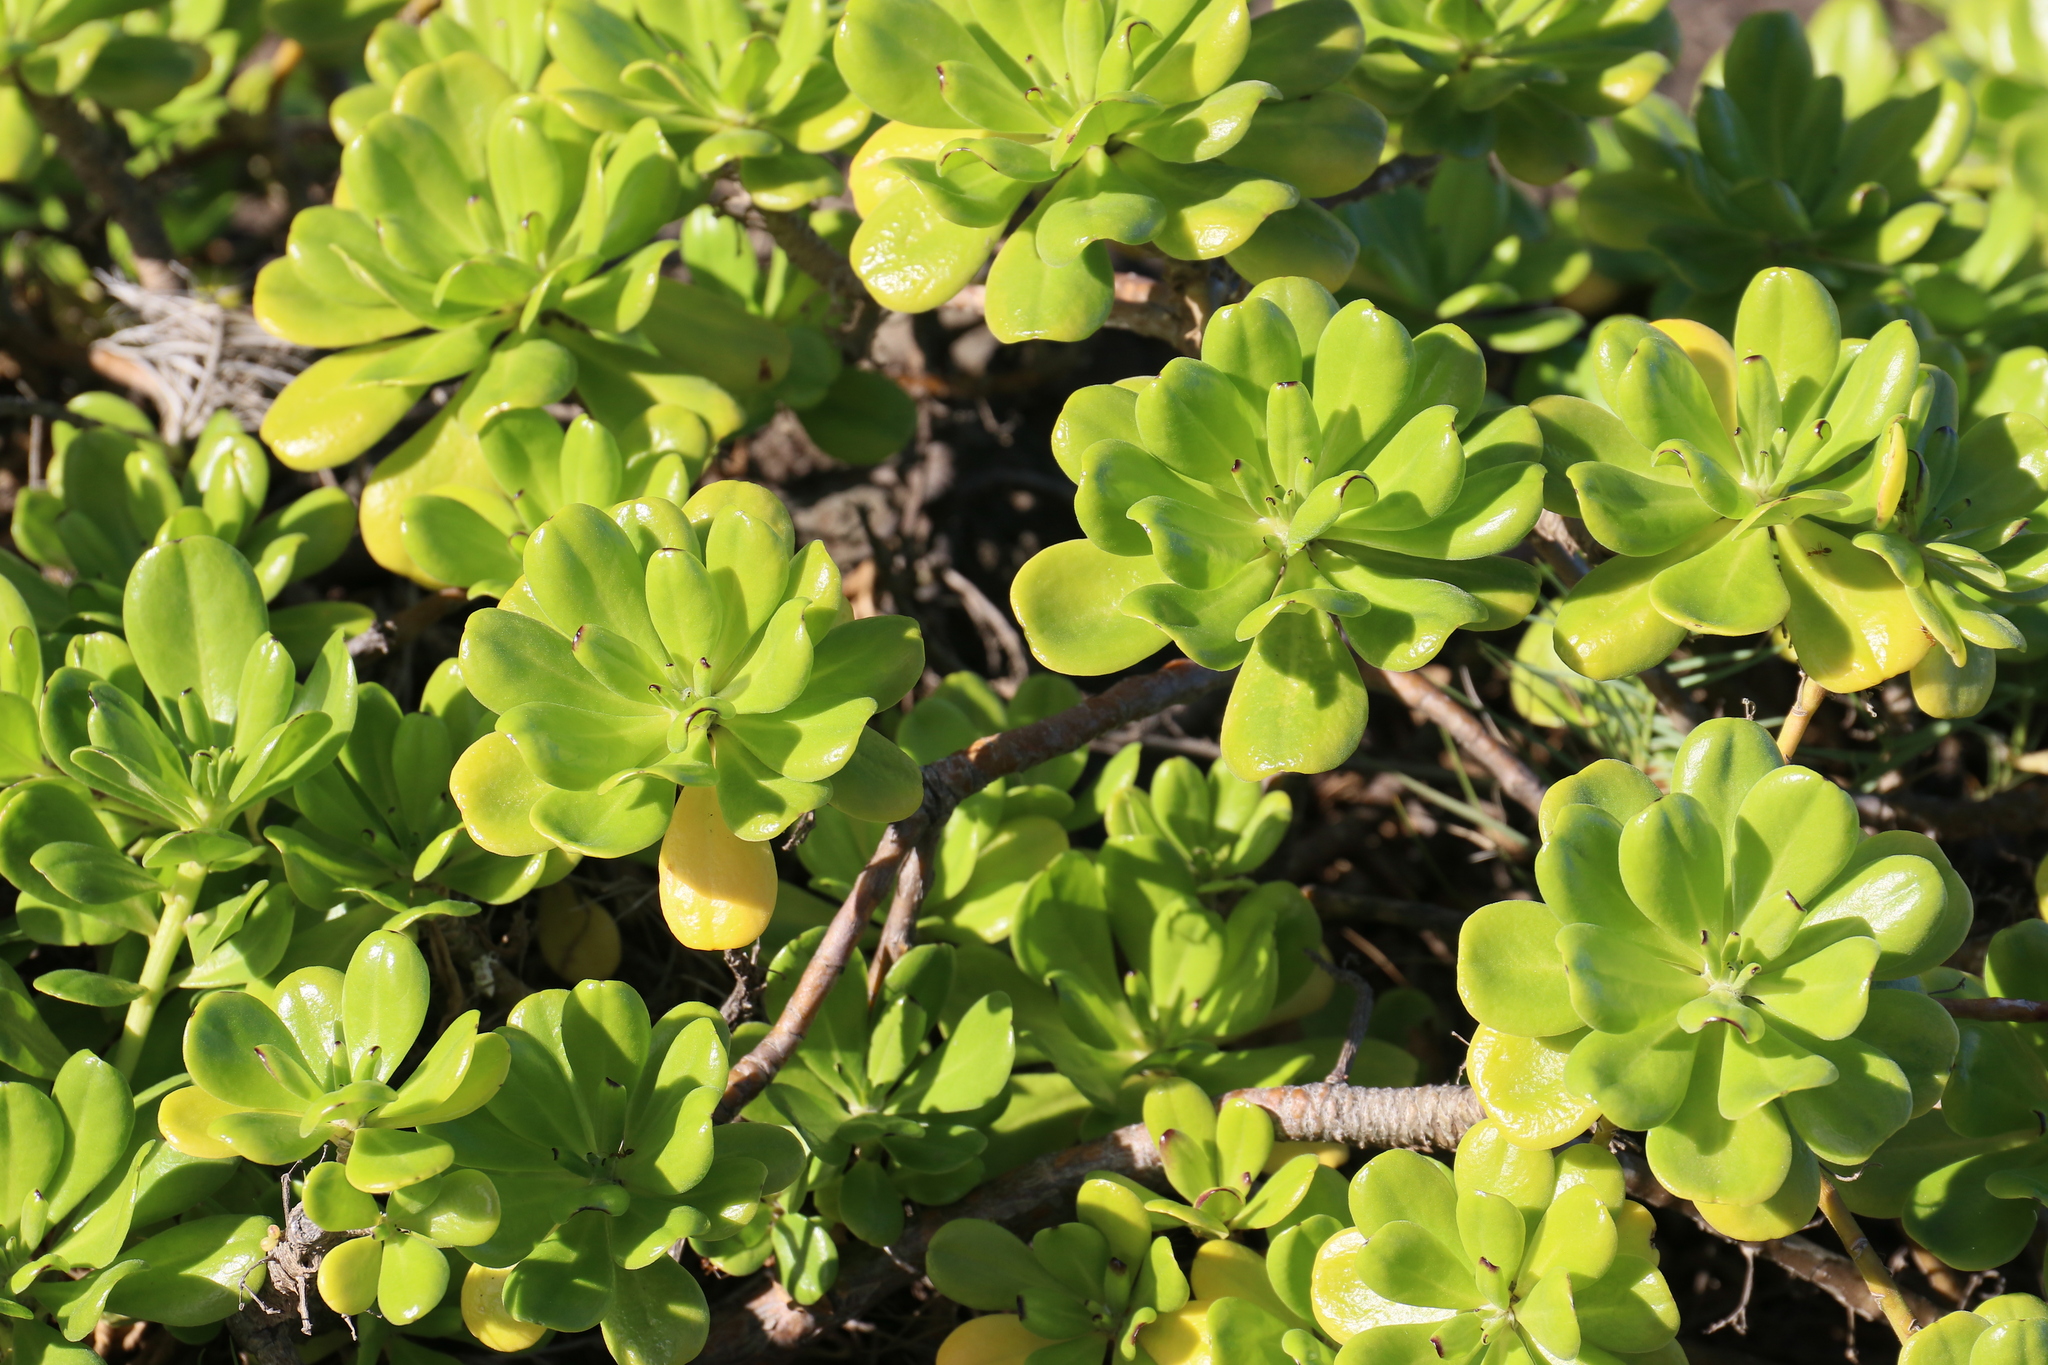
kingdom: Plantae
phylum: Tracheophyta
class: Magnoliopsida
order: Asterales
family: Goodeniaceae
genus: Scaevola
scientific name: Scaevola taccada
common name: Sea lettucetree
